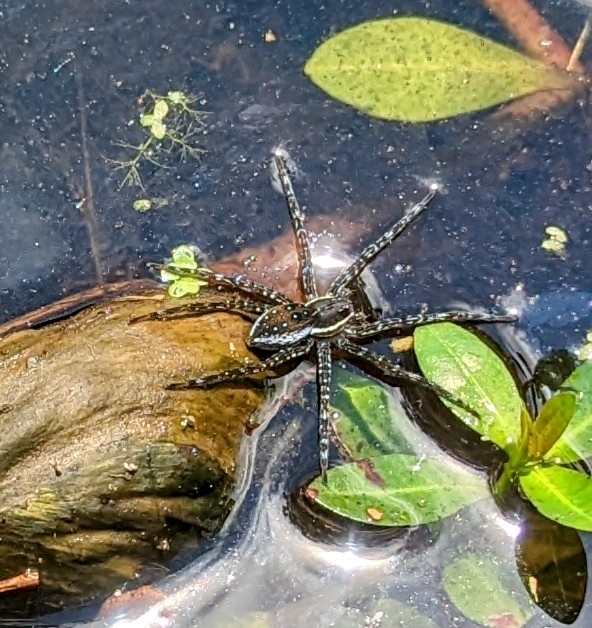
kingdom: Animalia
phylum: Arthropoda
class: Arachnida
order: Araneae
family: Pisauridae
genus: Dolomedes
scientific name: Dolomedes triton
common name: Six-spotted fishing spider
